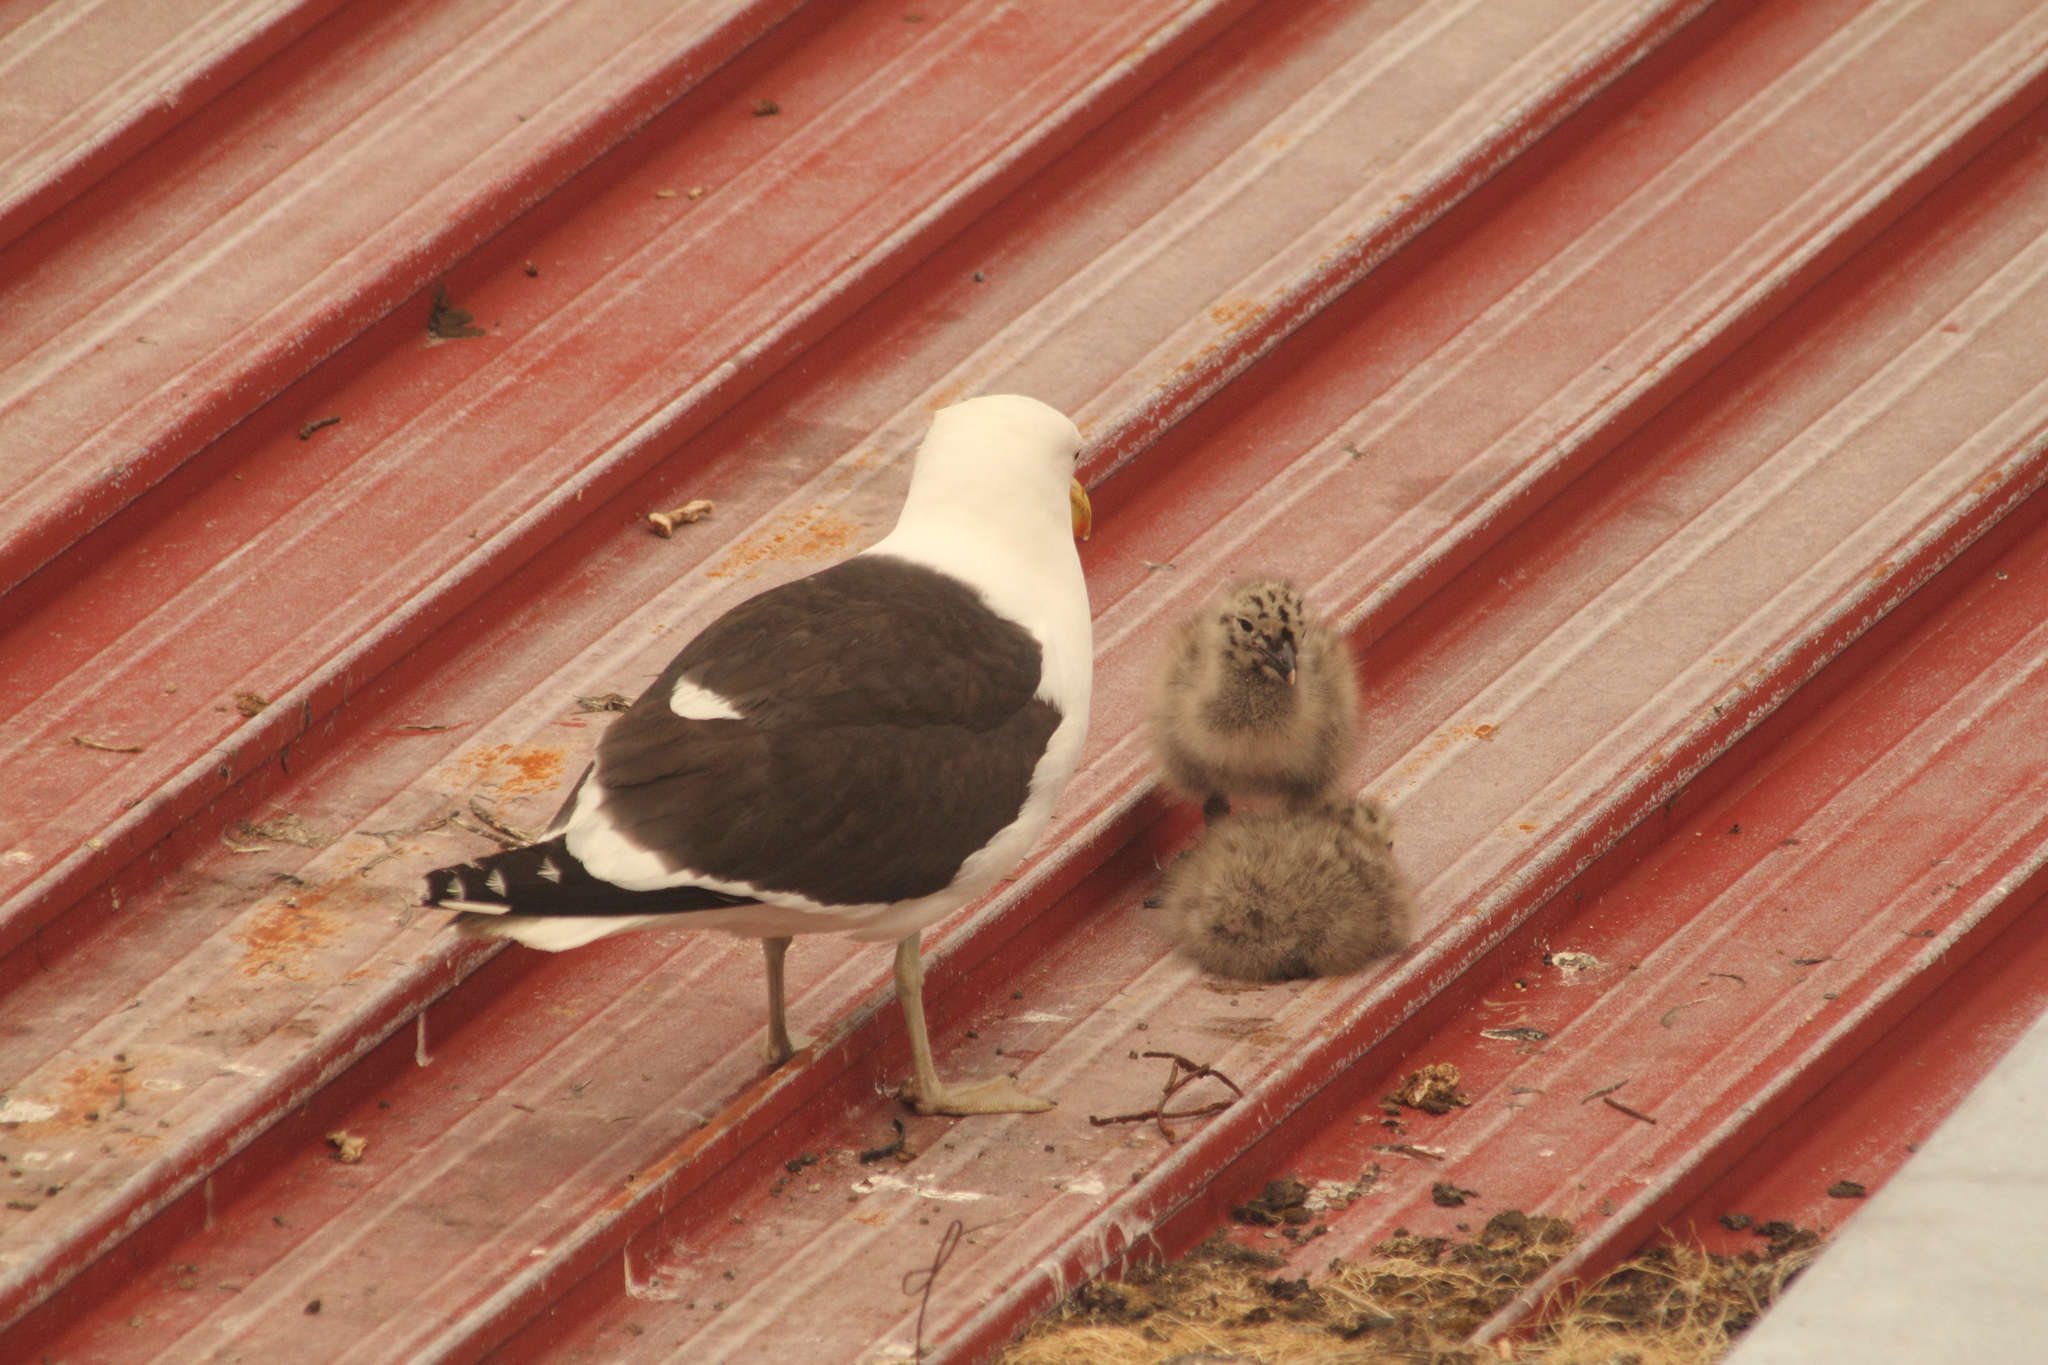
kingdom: Animalia
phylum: Chordata
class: Aves
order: Charadriiformes
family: Laridae
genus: Larus
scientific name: Larus dominicanus
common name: Kelp gull
